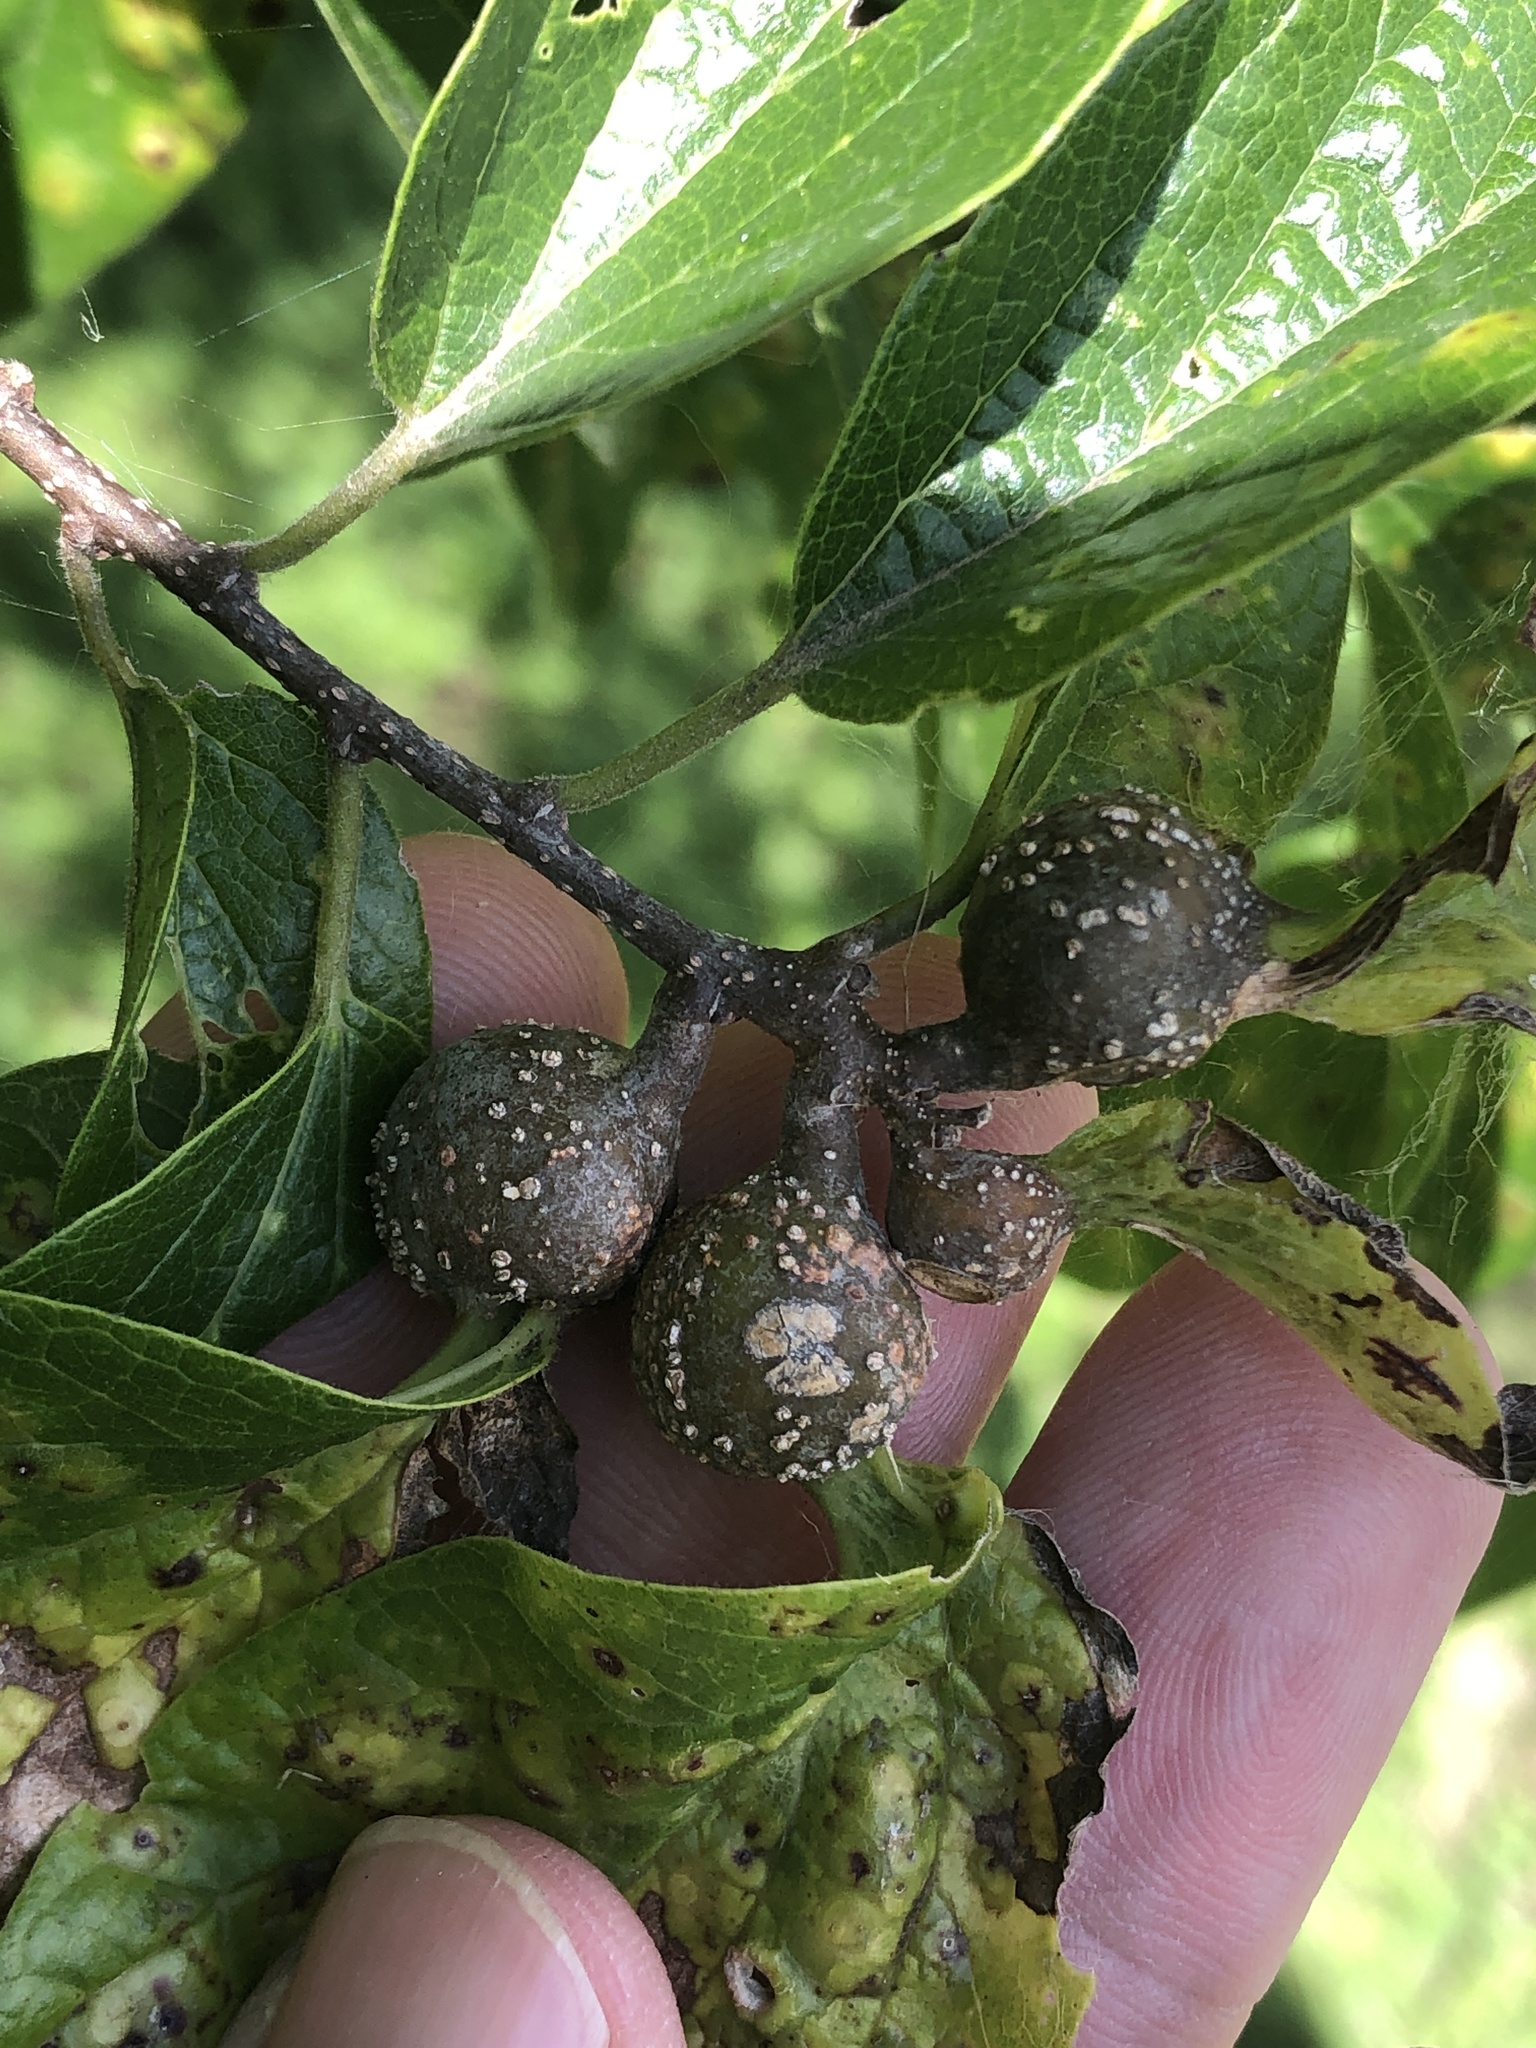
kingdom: Animalia
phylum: Arthropoda
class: Insecta
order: Hemiptera
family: Aphalaridae
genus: Pachypsylla
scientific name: Pachypsylla venusta
